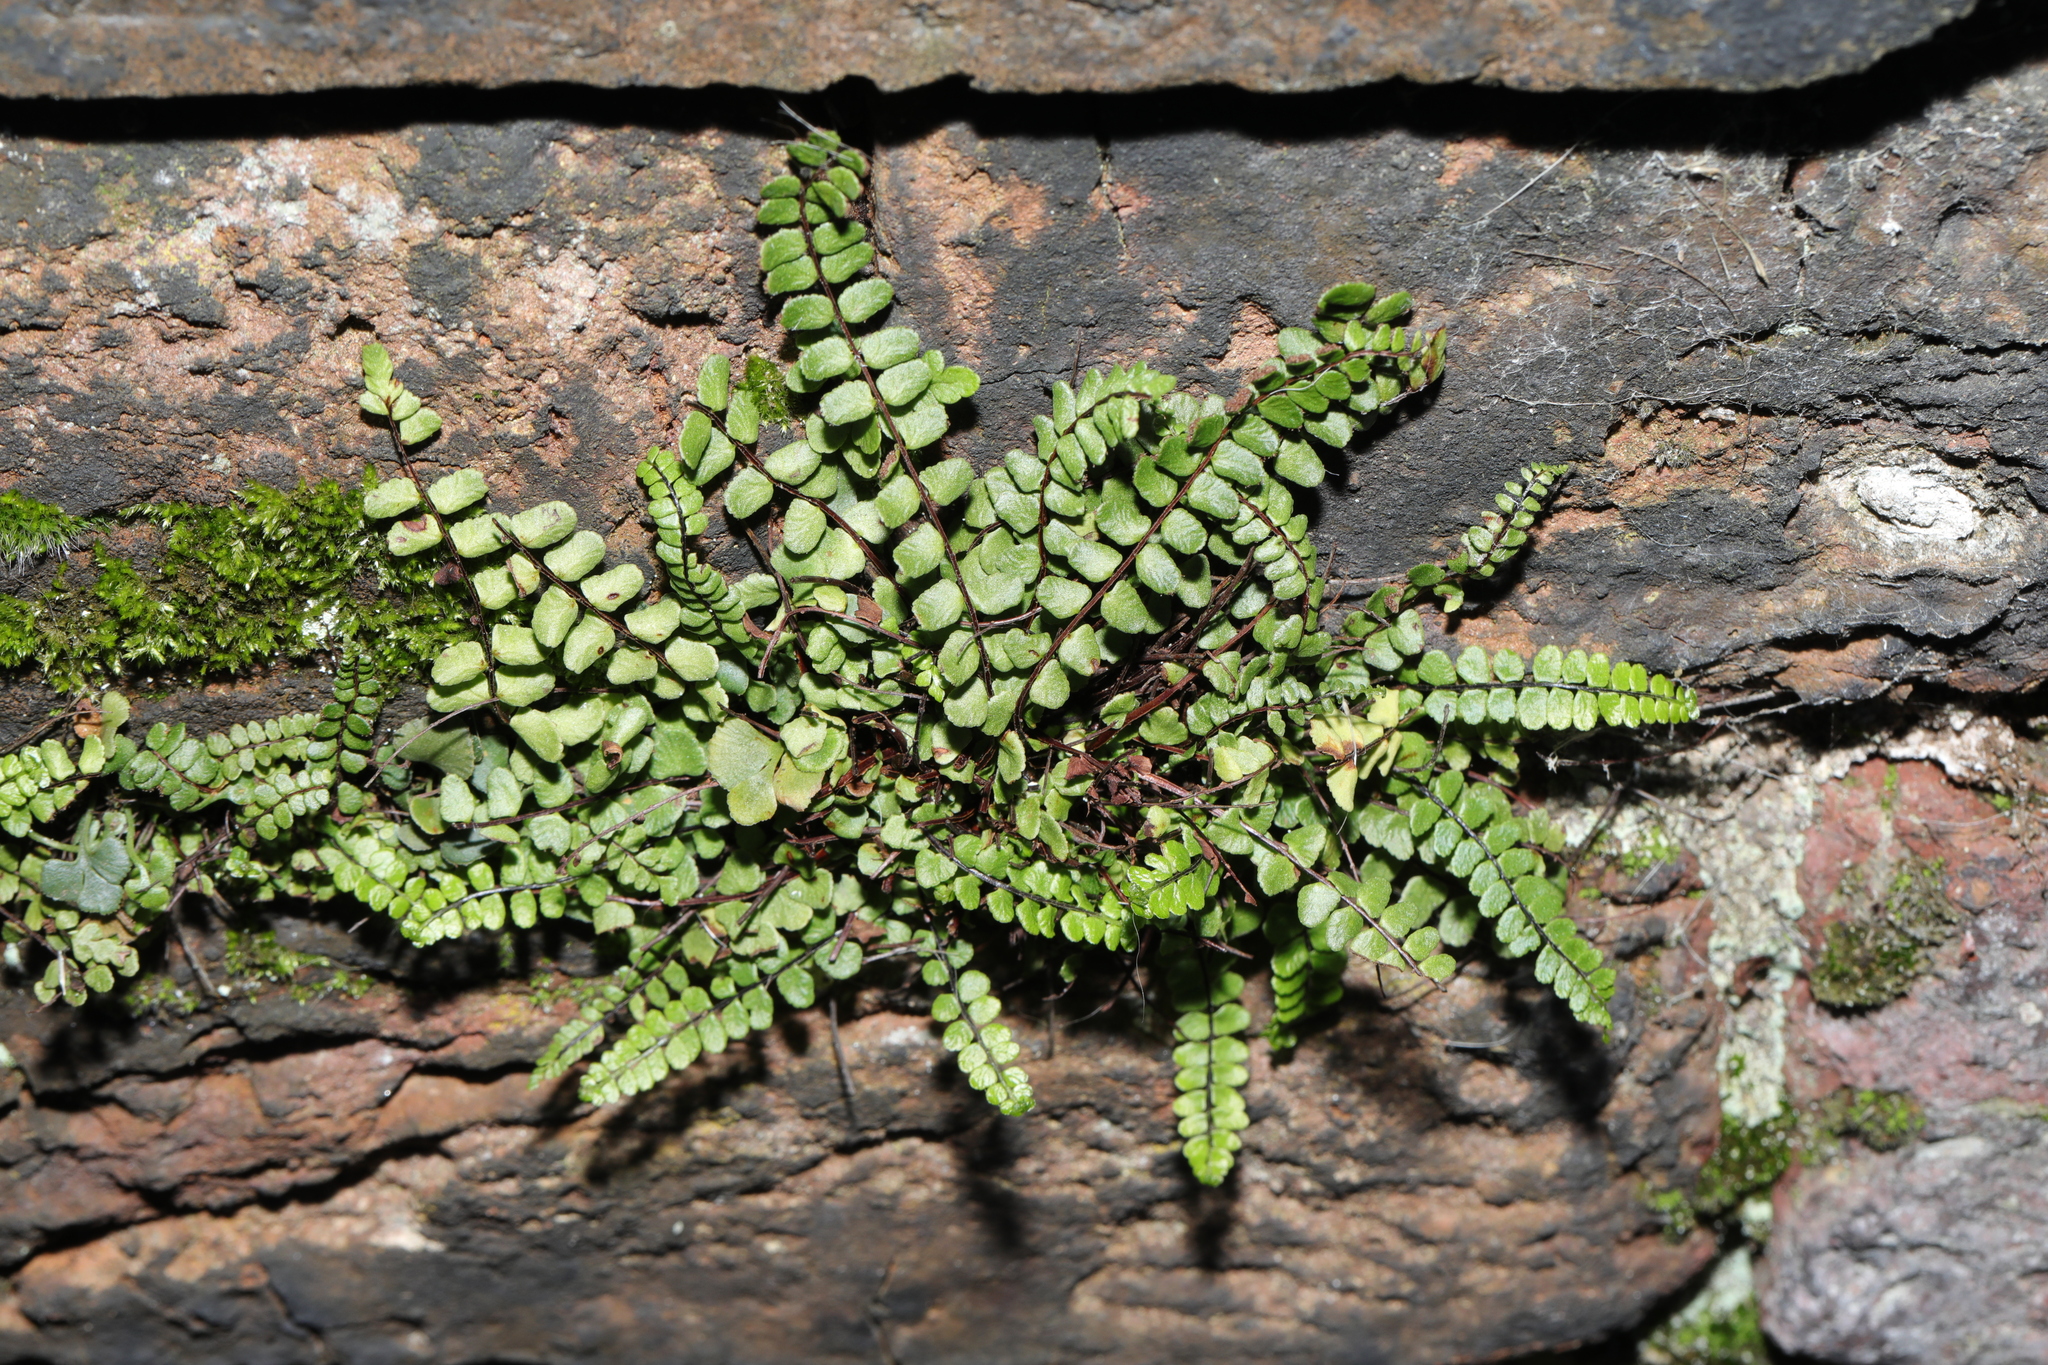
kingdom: Plantae
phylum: Tracheophyta
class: Polypodiopsida
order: Polypodiales
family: Aspleniaceae
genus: Asplenium
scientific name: Asplenium trichomanes
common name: Maidenhair spleenwort
